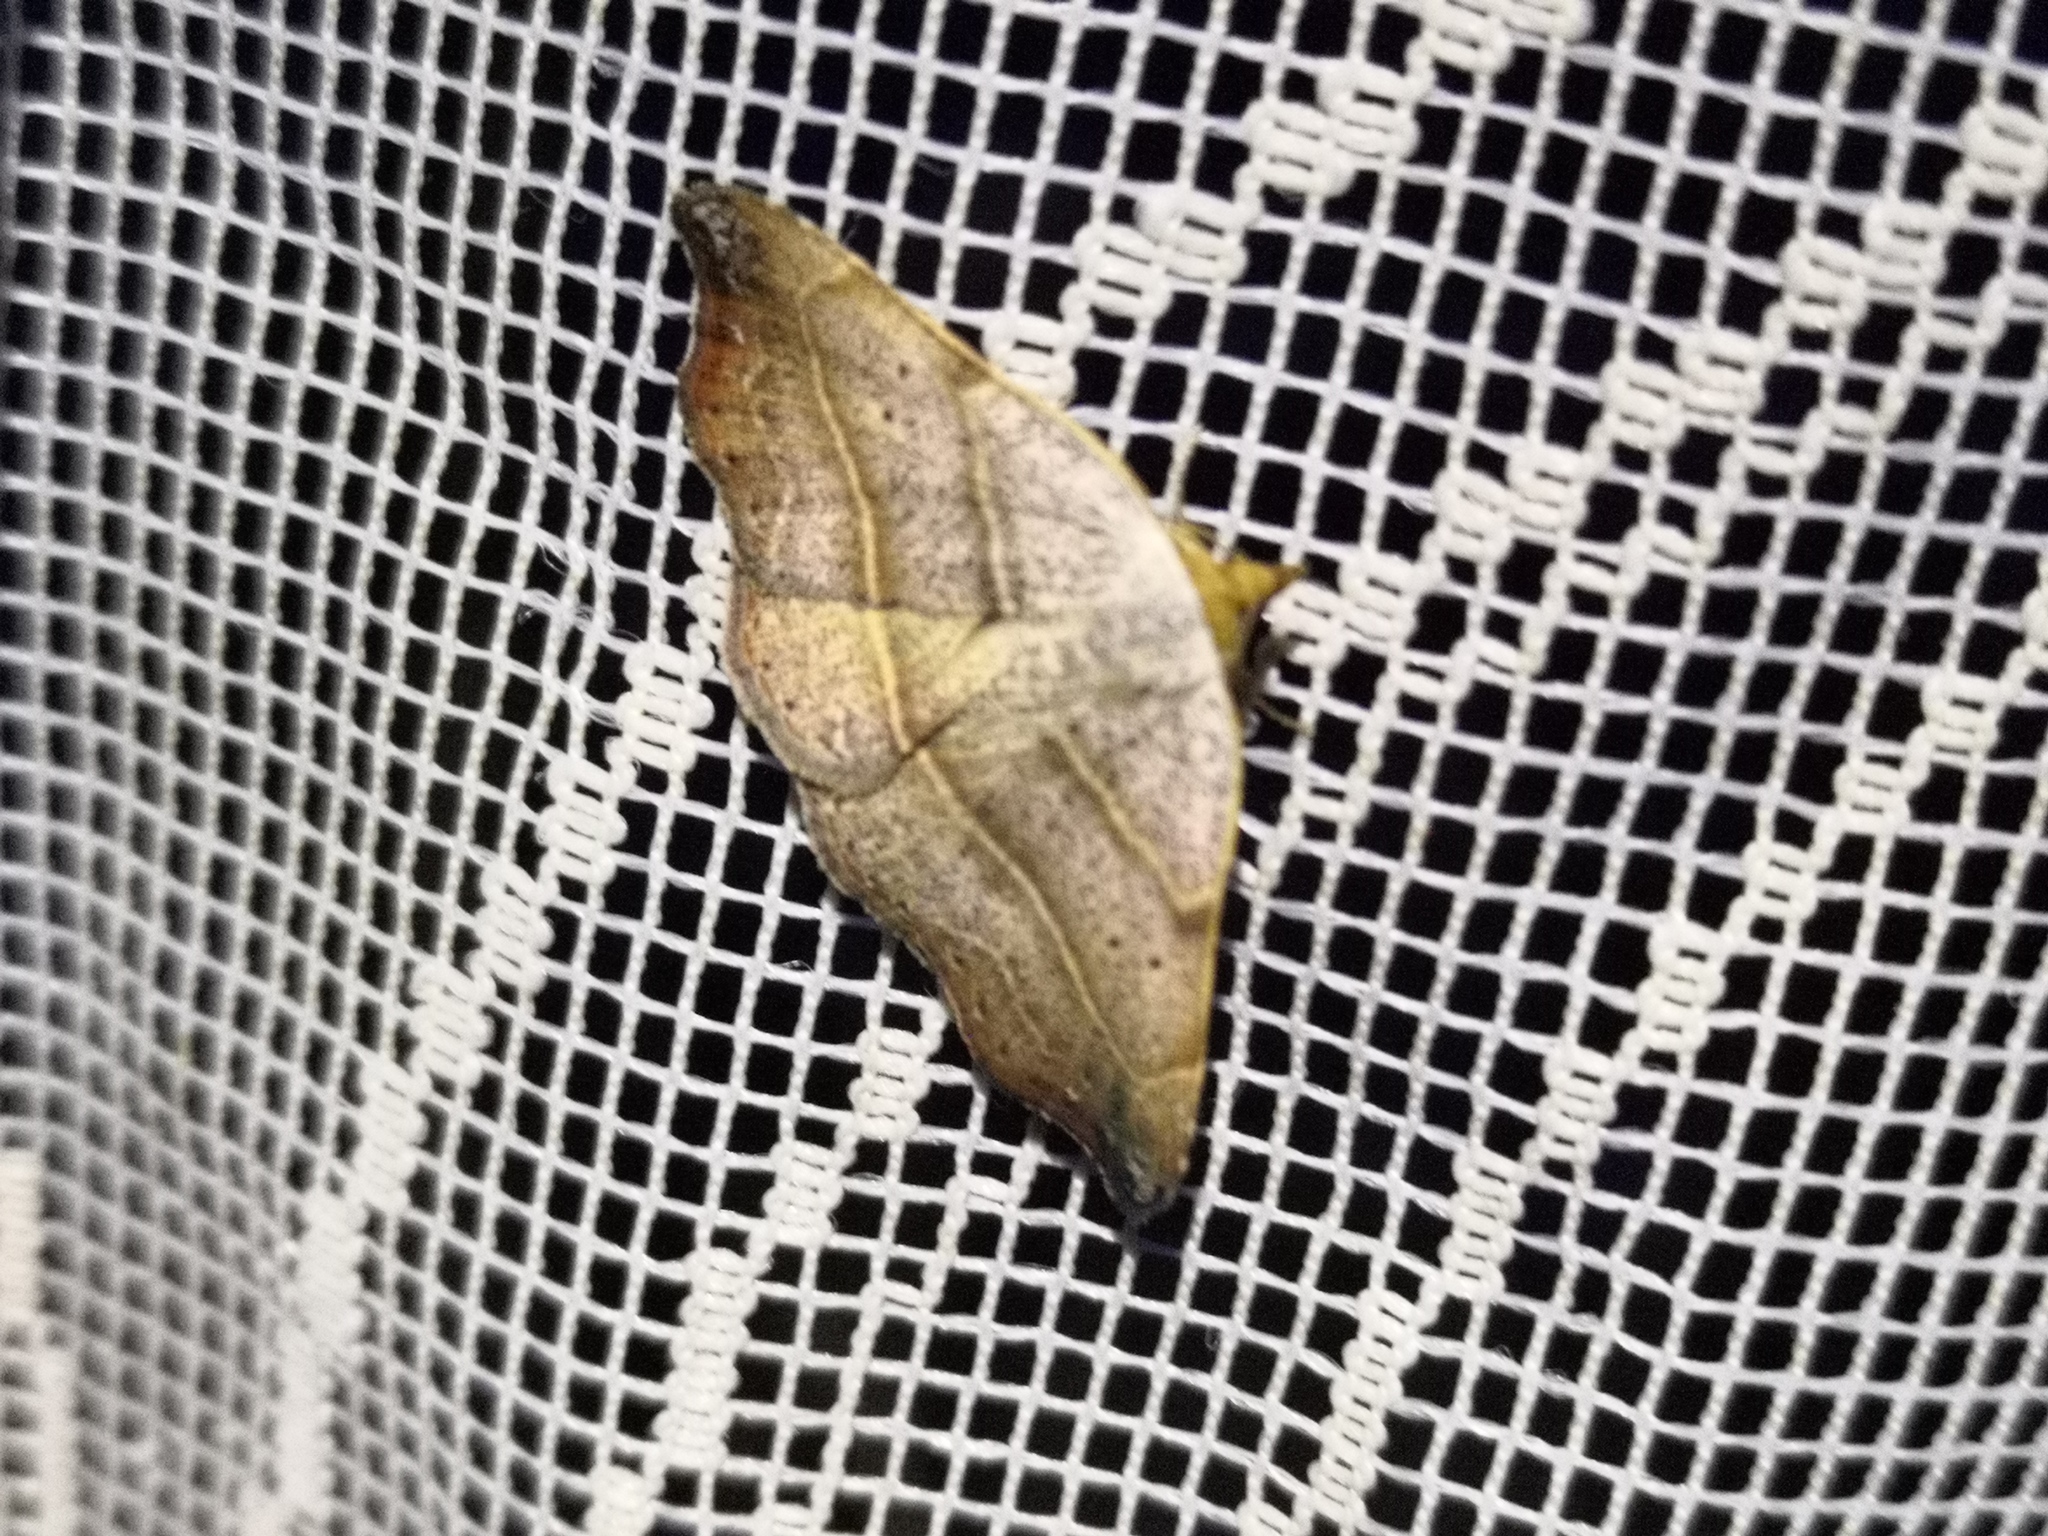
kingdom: Animalia
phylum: Arthropoda
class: Insecta
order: Lepidoptera
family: Erebidae
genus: Laspeyria
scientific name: Laspeyria flexula
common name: Beautiful hook-tip
